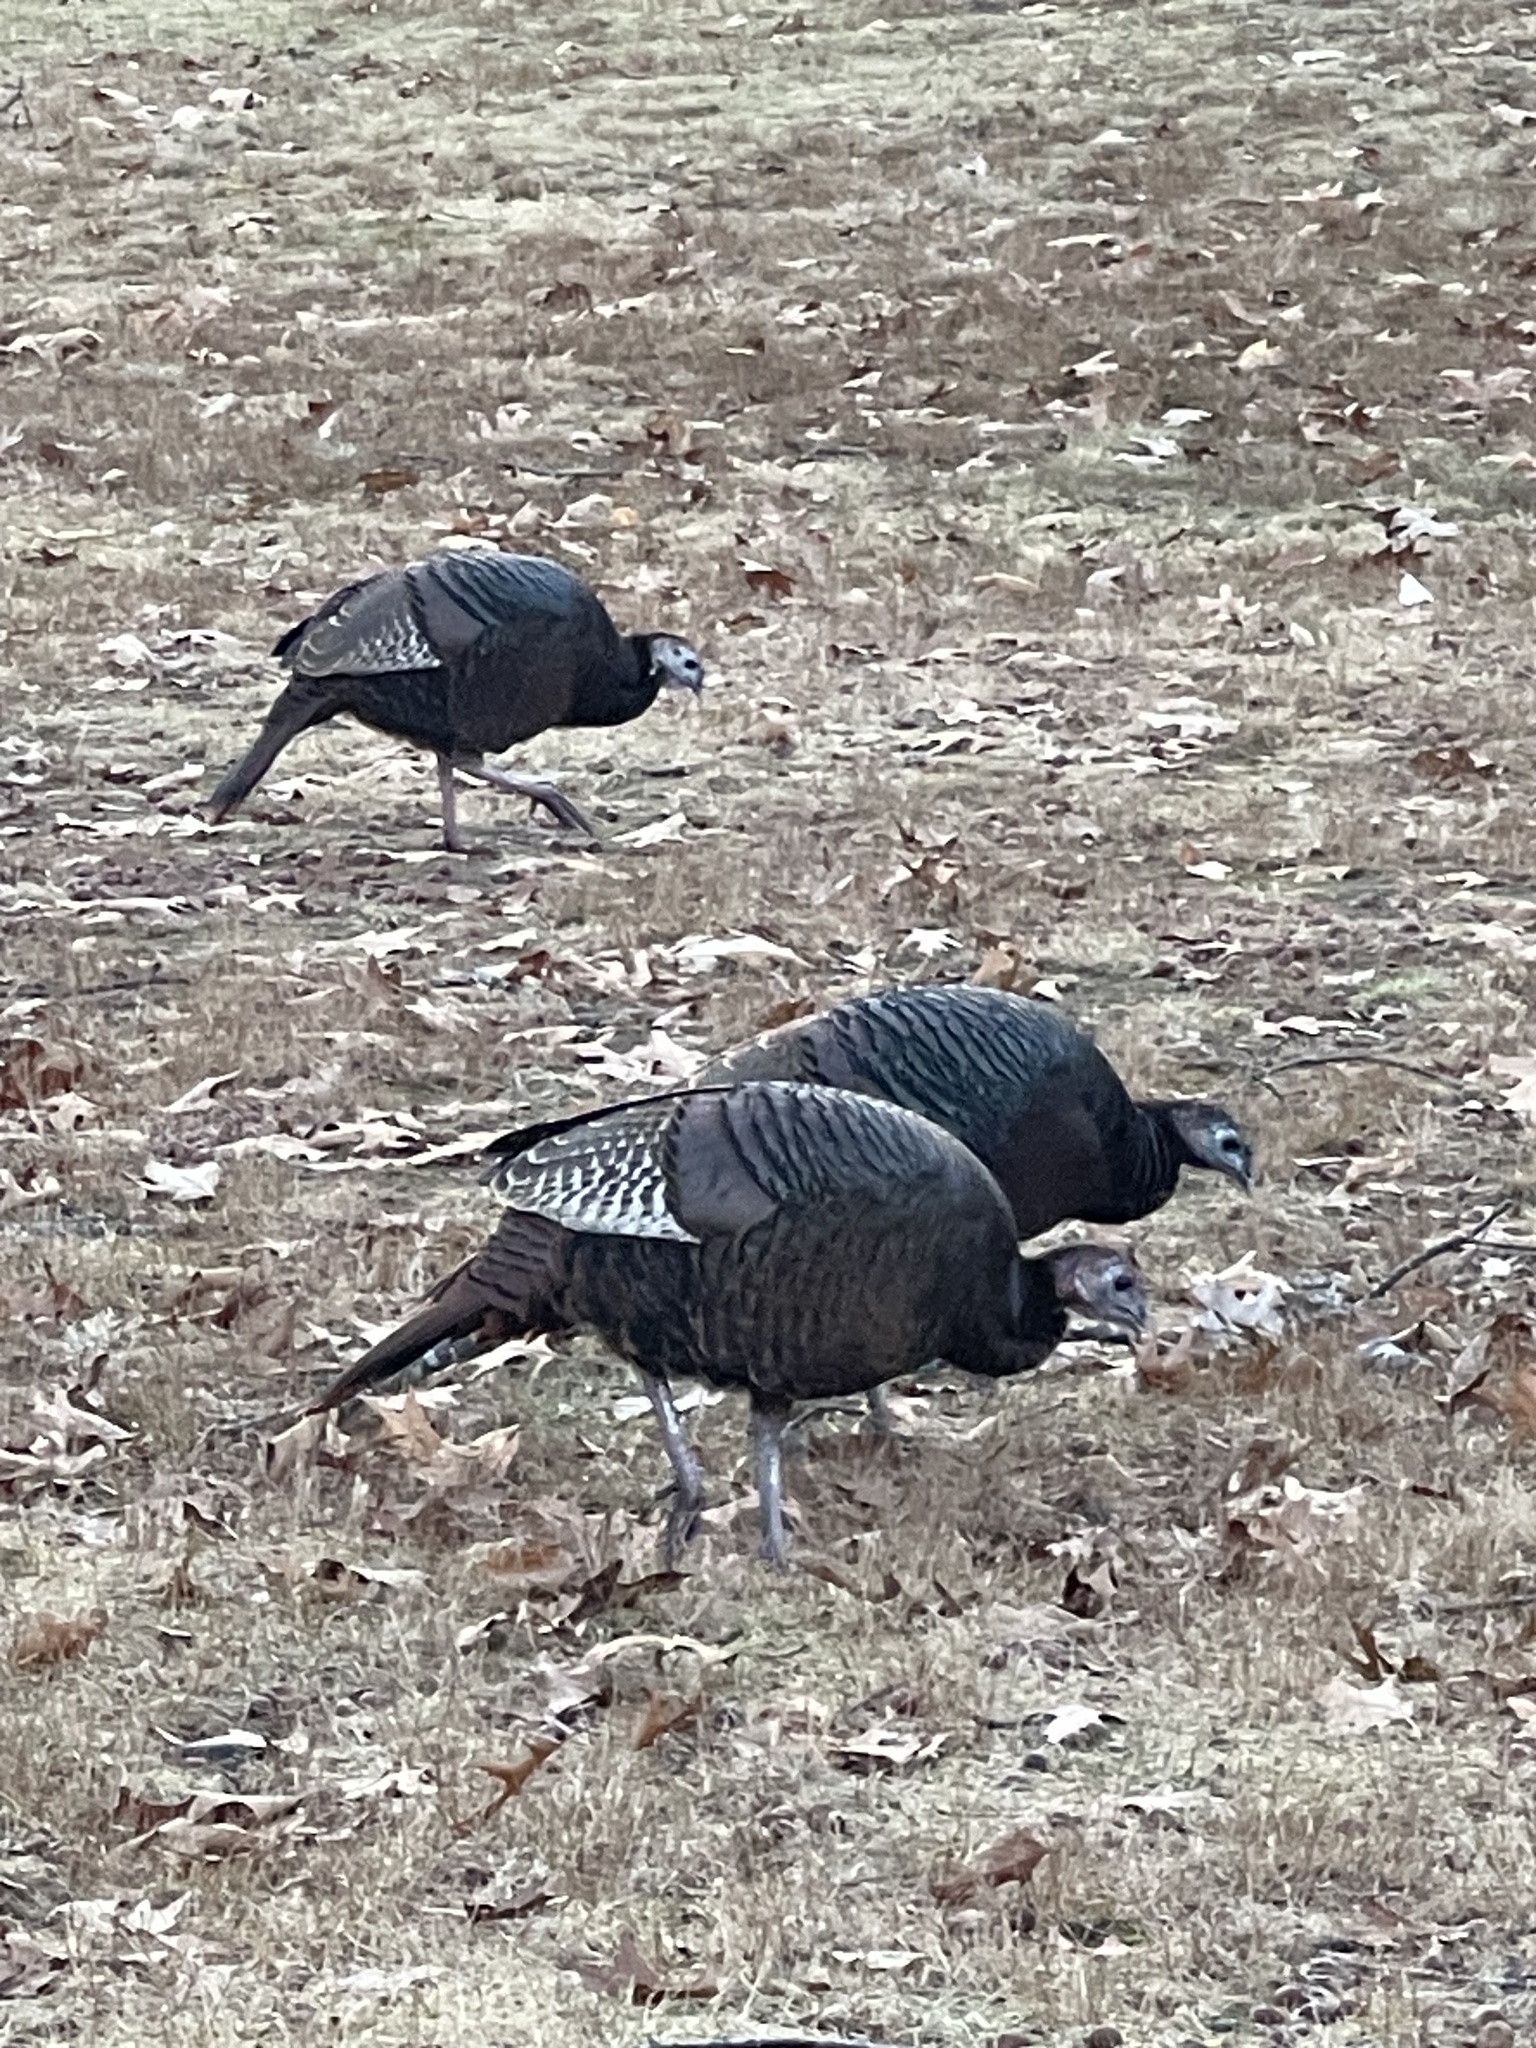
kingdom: Animalia
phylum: Chordata
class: Aves
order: Galliformes
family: Phasianidae
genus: Meleagris
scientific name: Meleagris gallopavo
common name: Wild turkey
